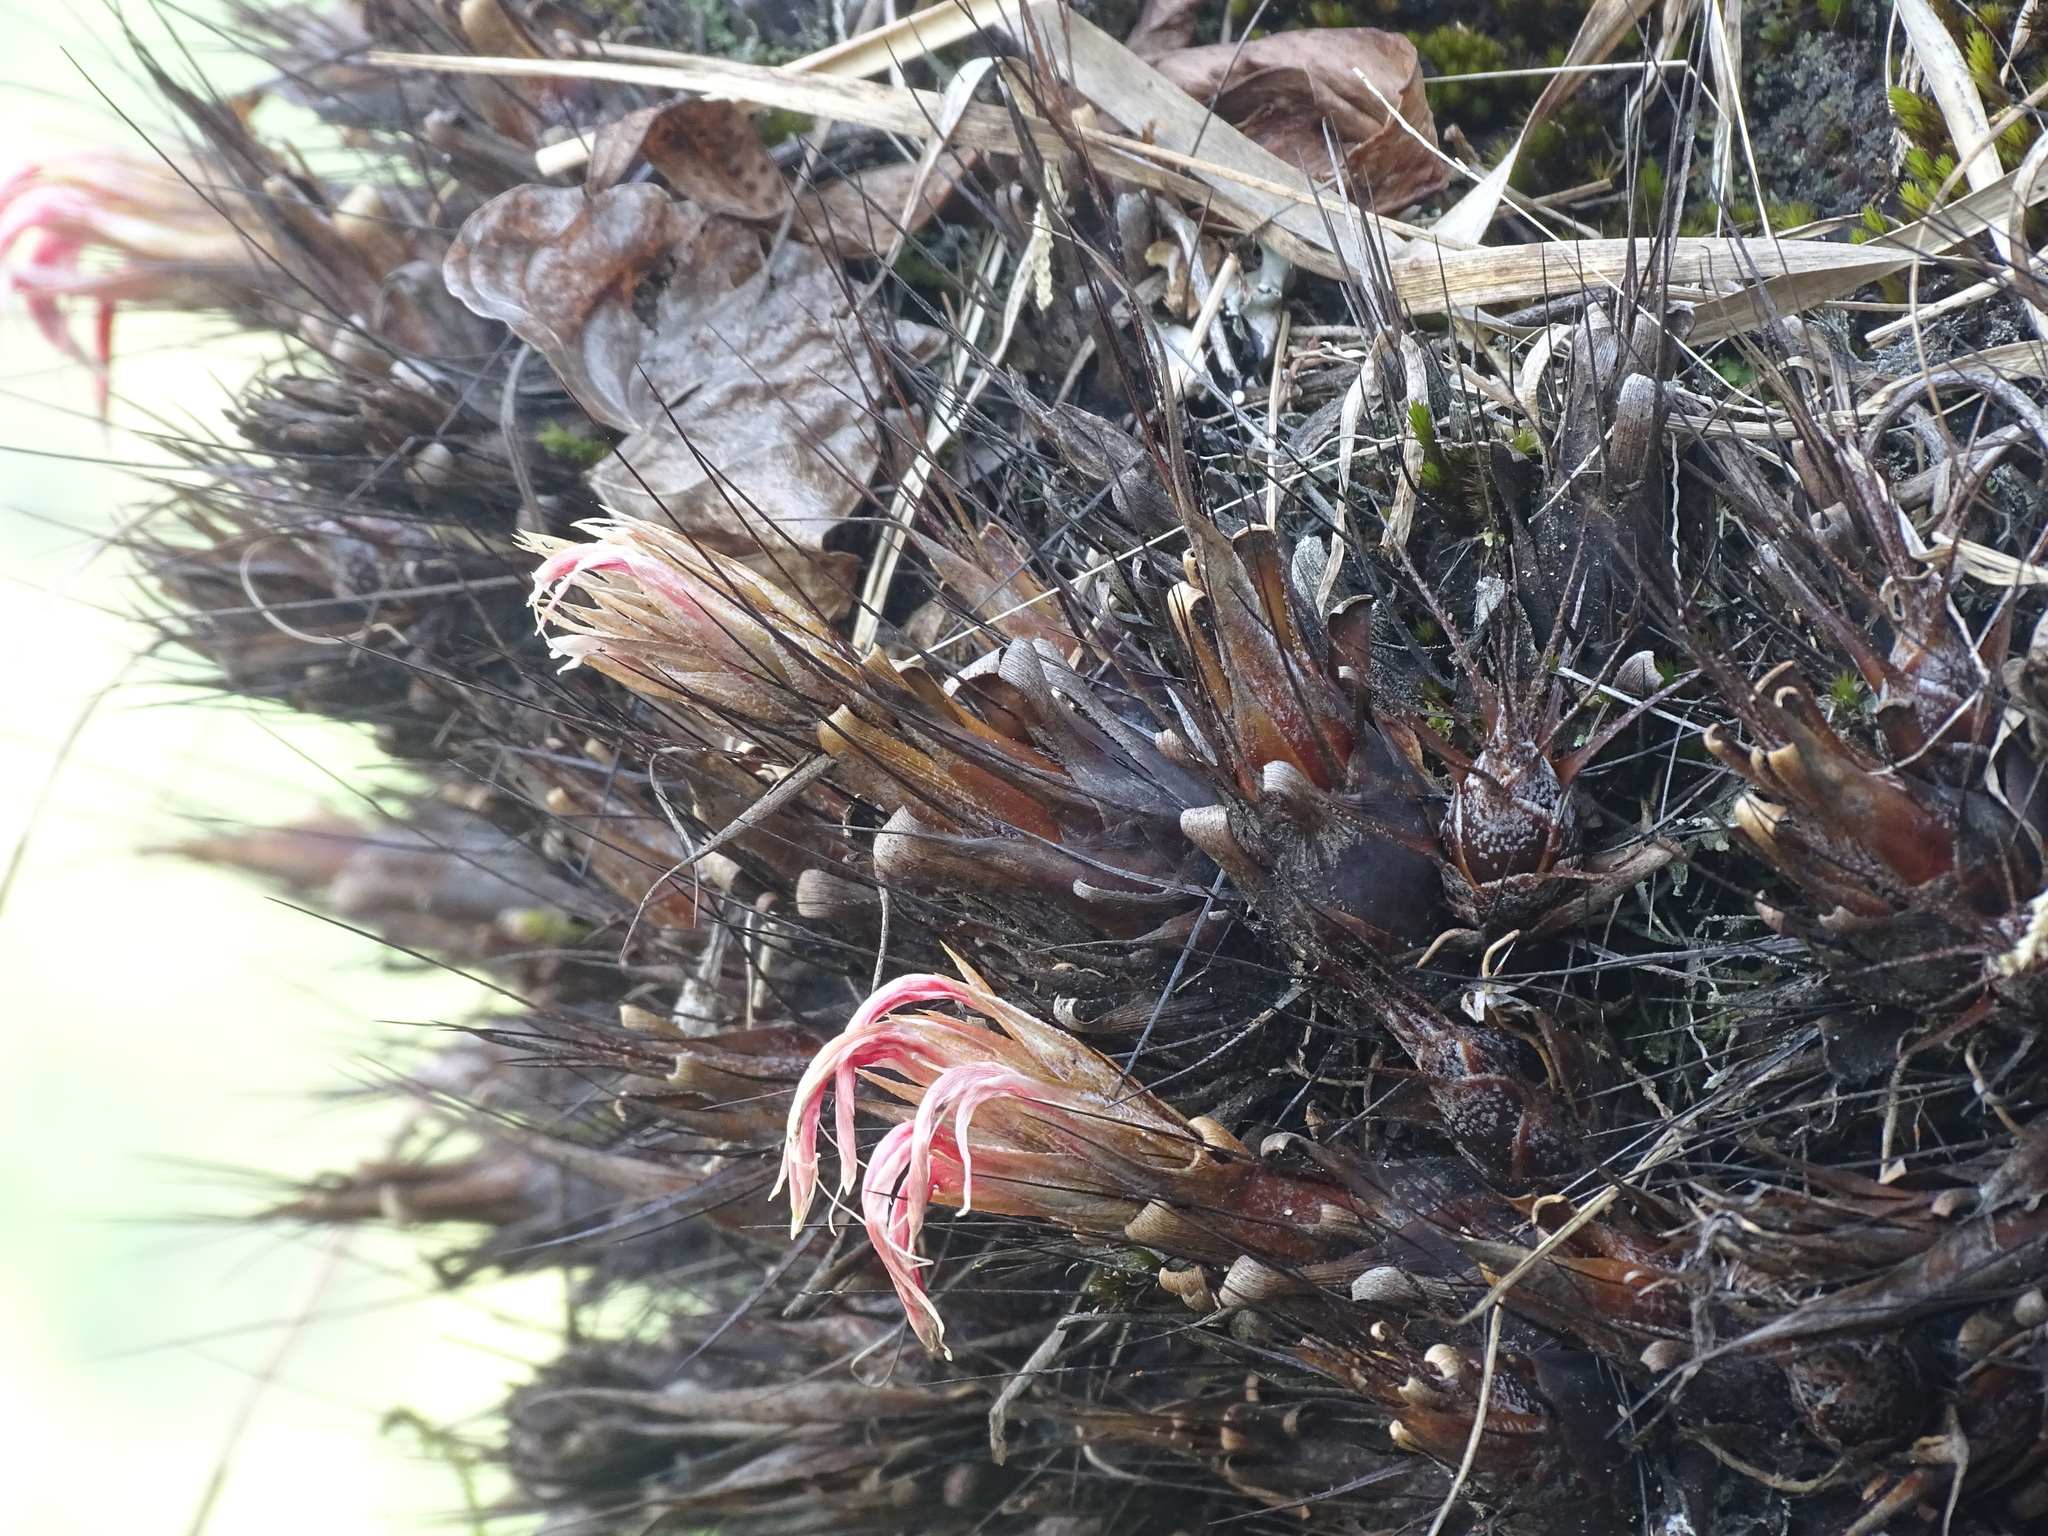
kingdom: Plantae
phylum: Tracheophyta
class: Liliopsida
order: Poales
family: Bromeliaceae
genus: Pitcairnia
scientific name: Pitcairnia heterophylla
